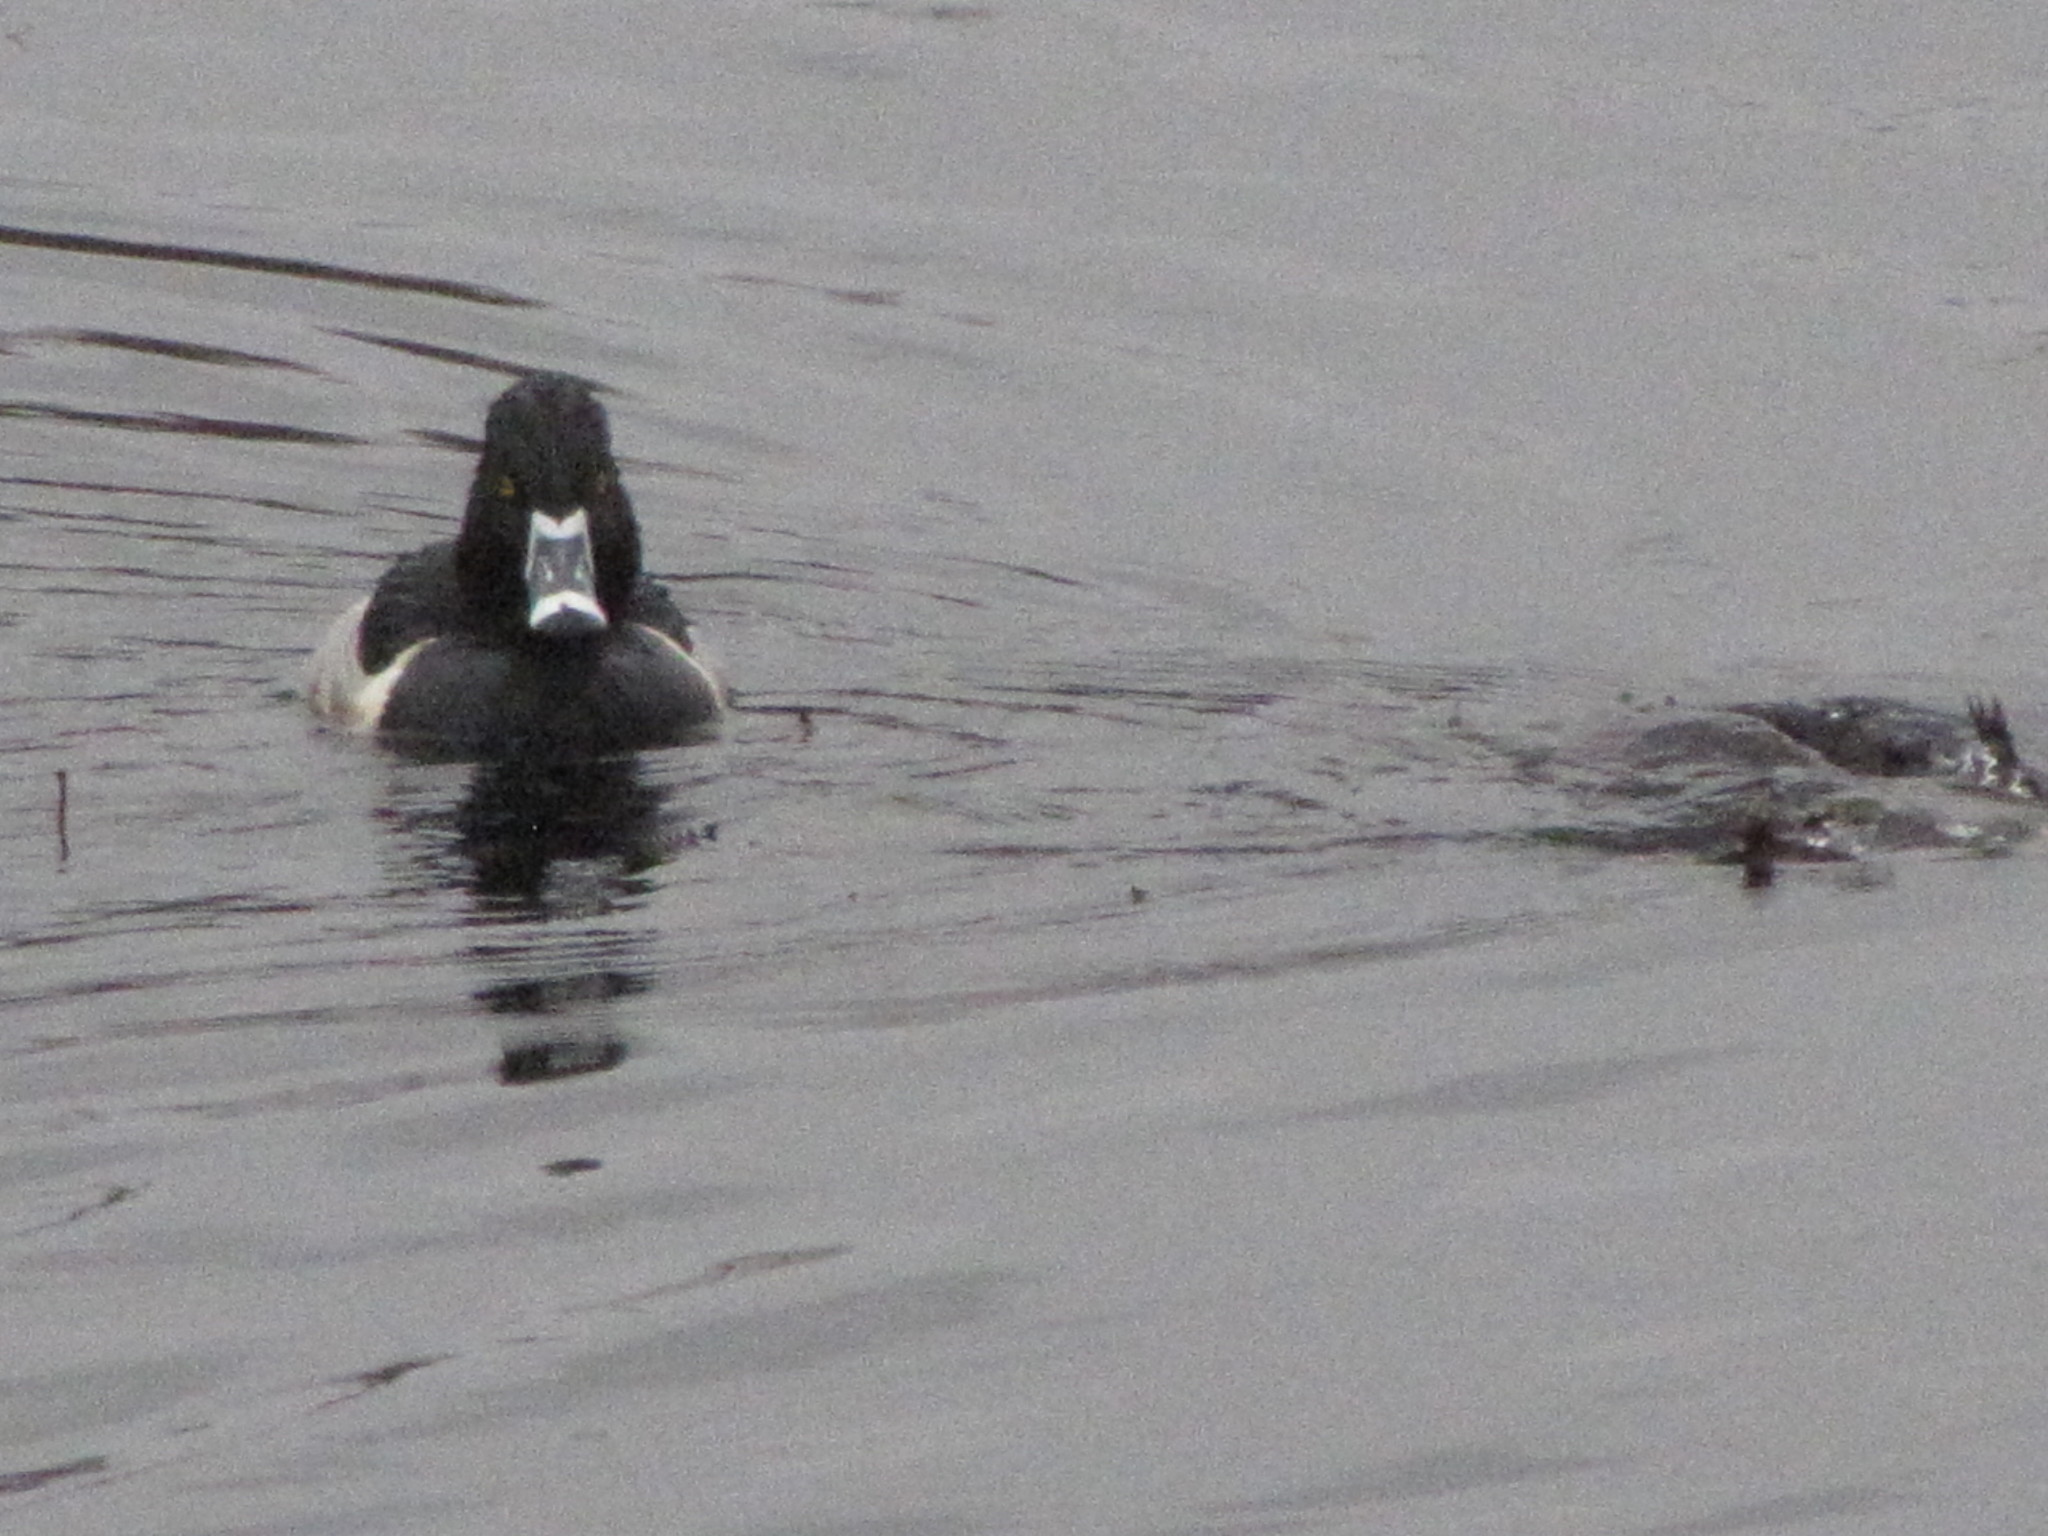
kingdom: Animalia
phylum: Chordata
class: Aves
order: Anseriformes
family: Anatidae
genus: Aythya
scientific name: Aythya collaris
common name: Ring-necked duck
